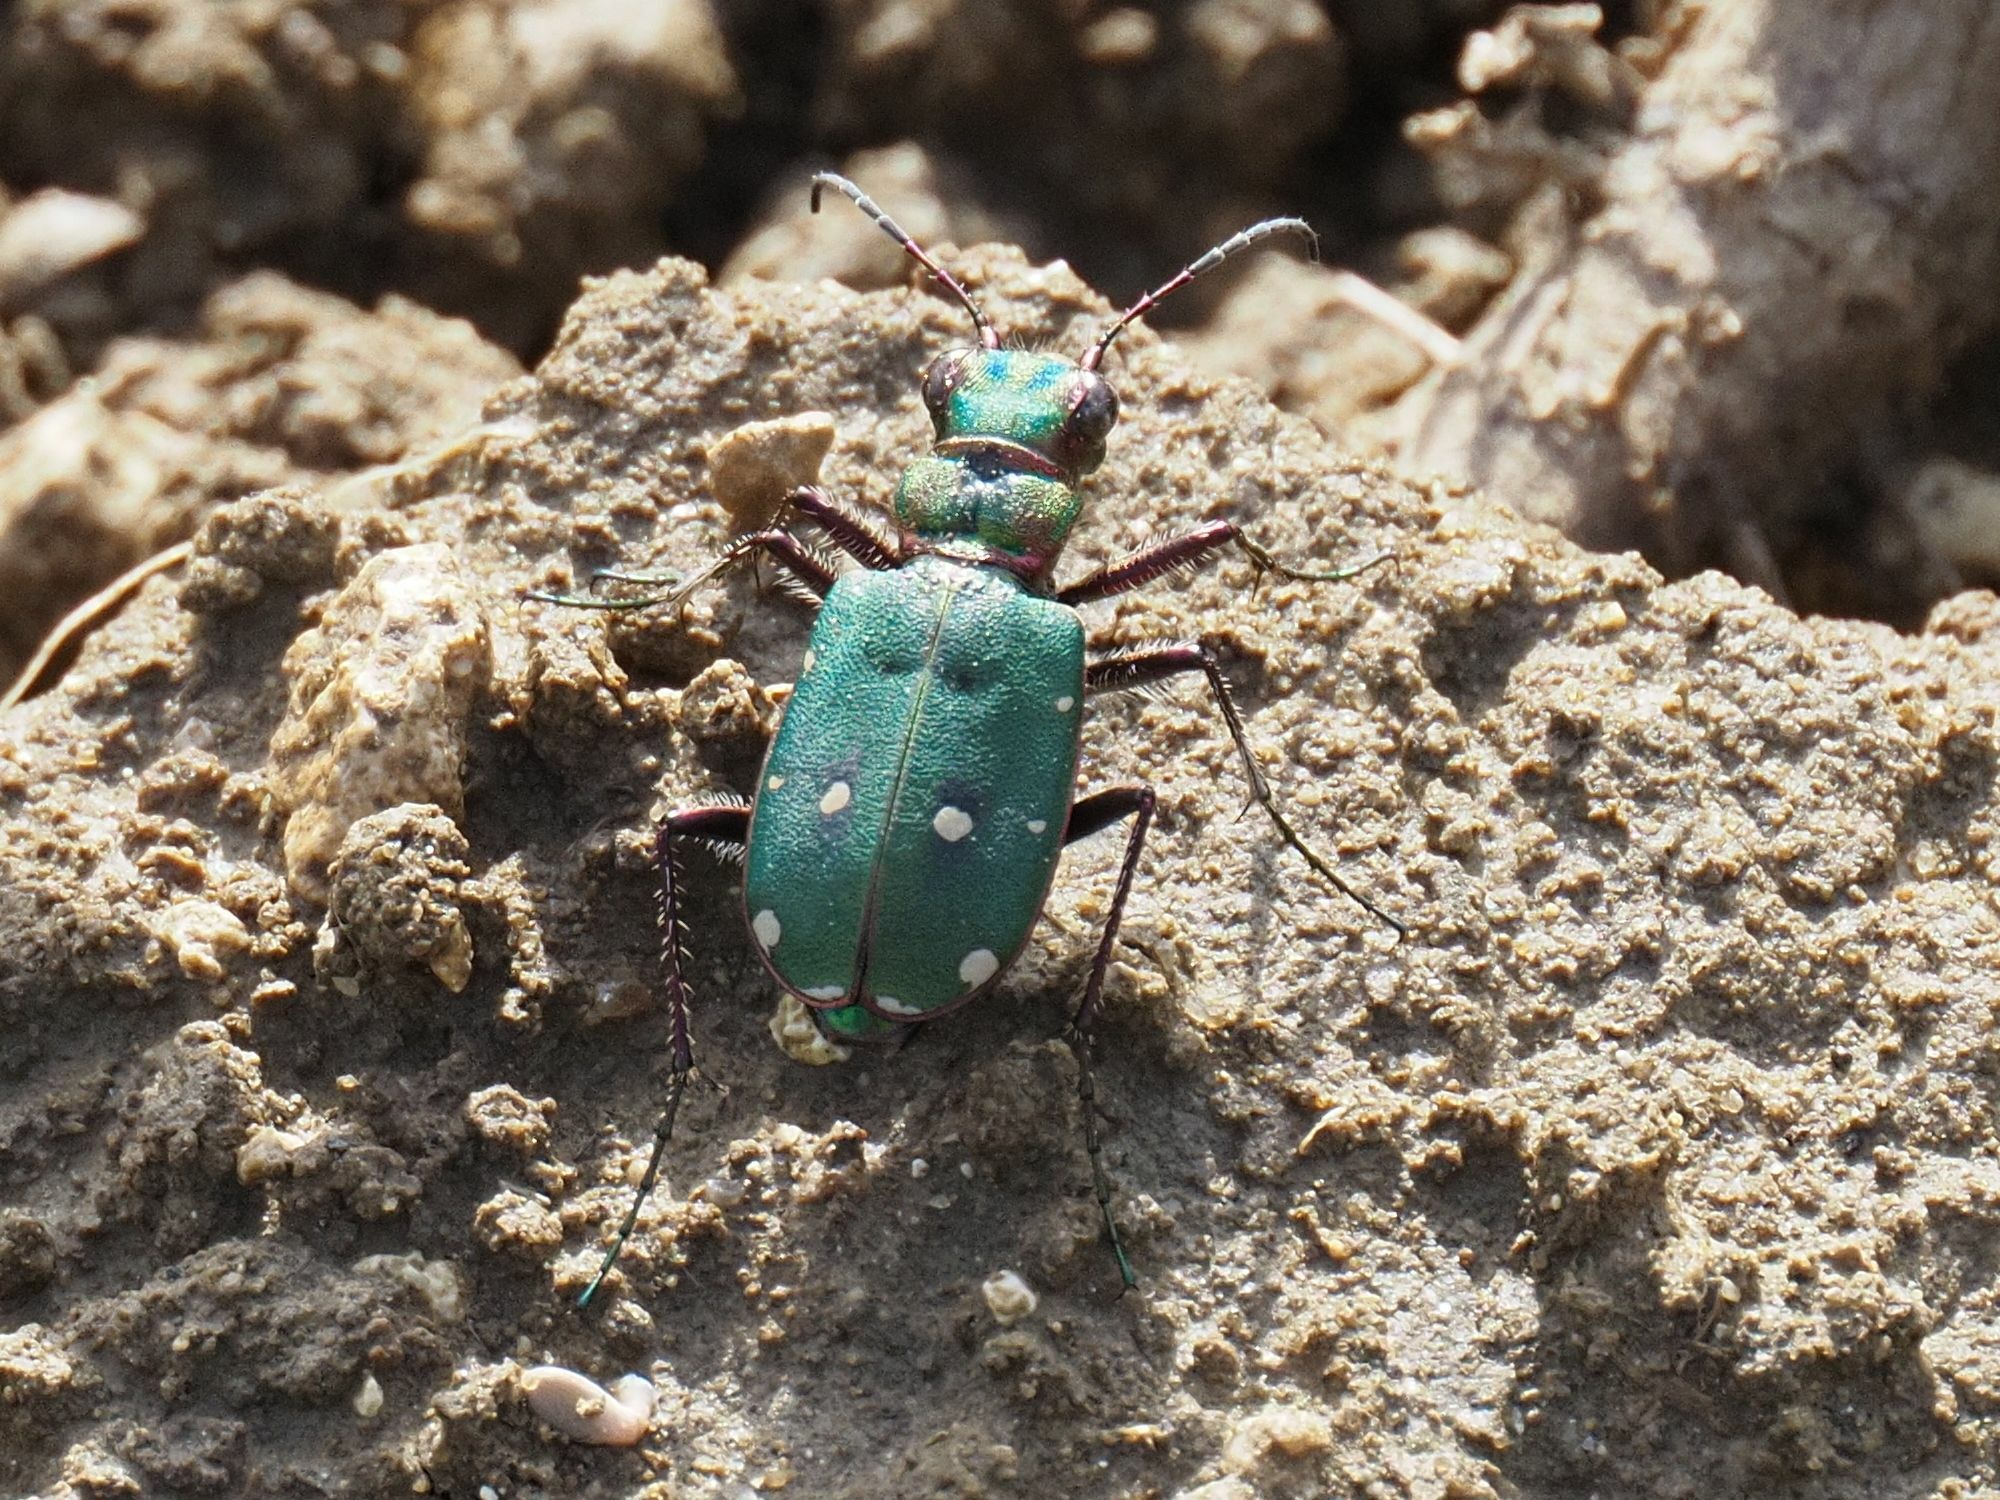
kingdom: Animalia
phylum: Arthropoda
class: Insecta
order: Coleoptera
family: Carabidae
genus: Cicindela
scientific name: Cicindela campestris
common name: Common tiger beetle
